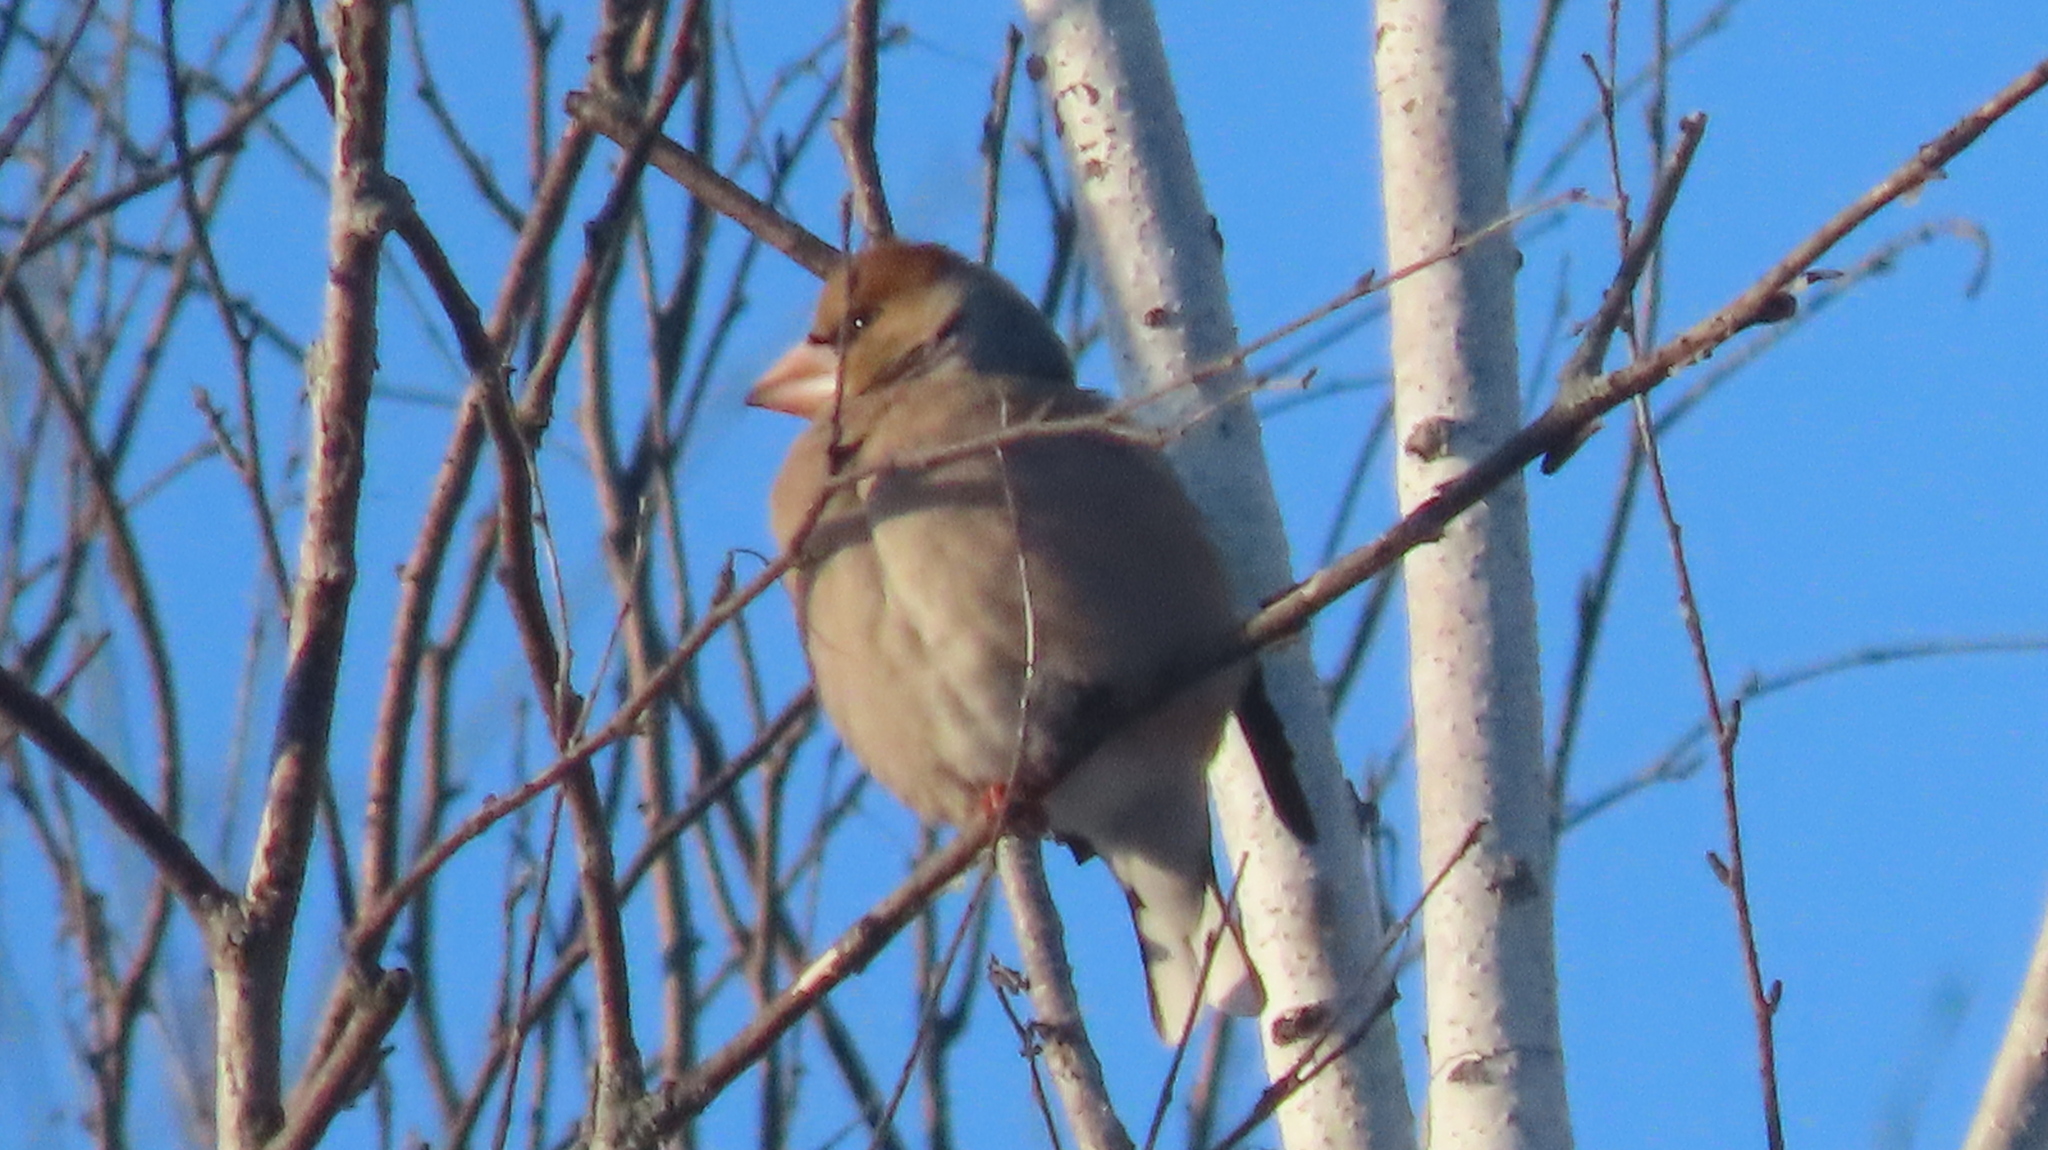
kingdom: Animalia
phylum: Chordata
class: Aves
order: Passeriformes
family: Fringillidae
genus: Coccothraustes
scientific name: Coccothraustes coccothraustes
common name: Hawfinch
